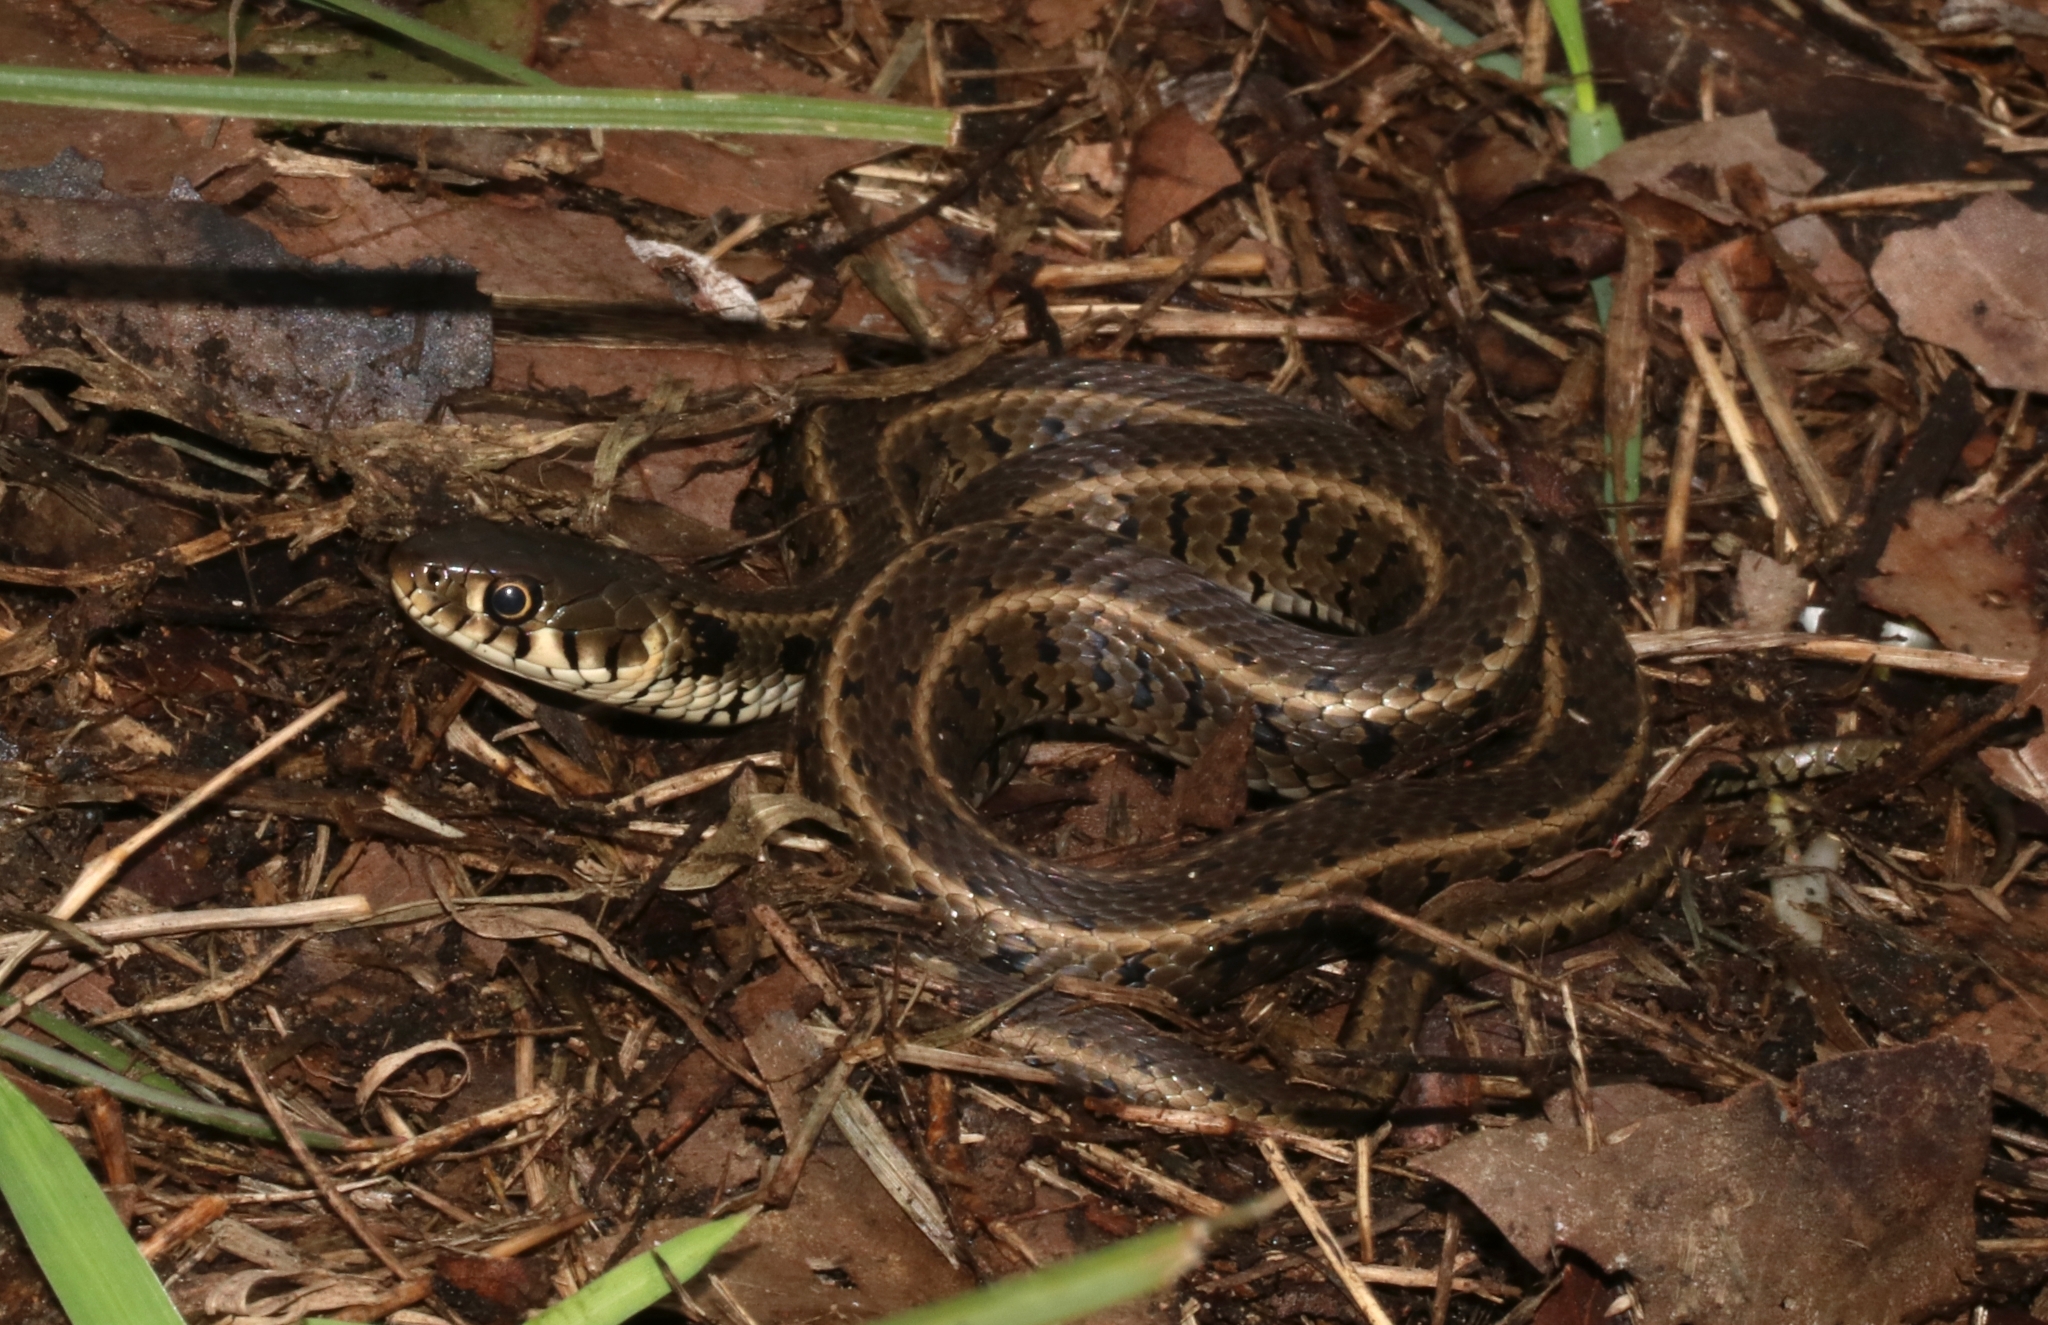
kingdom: Animalia
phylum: Chordata
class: Squamata
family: Colubridae
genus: Natrix
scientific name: Natrix natrix
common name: Grass snake
